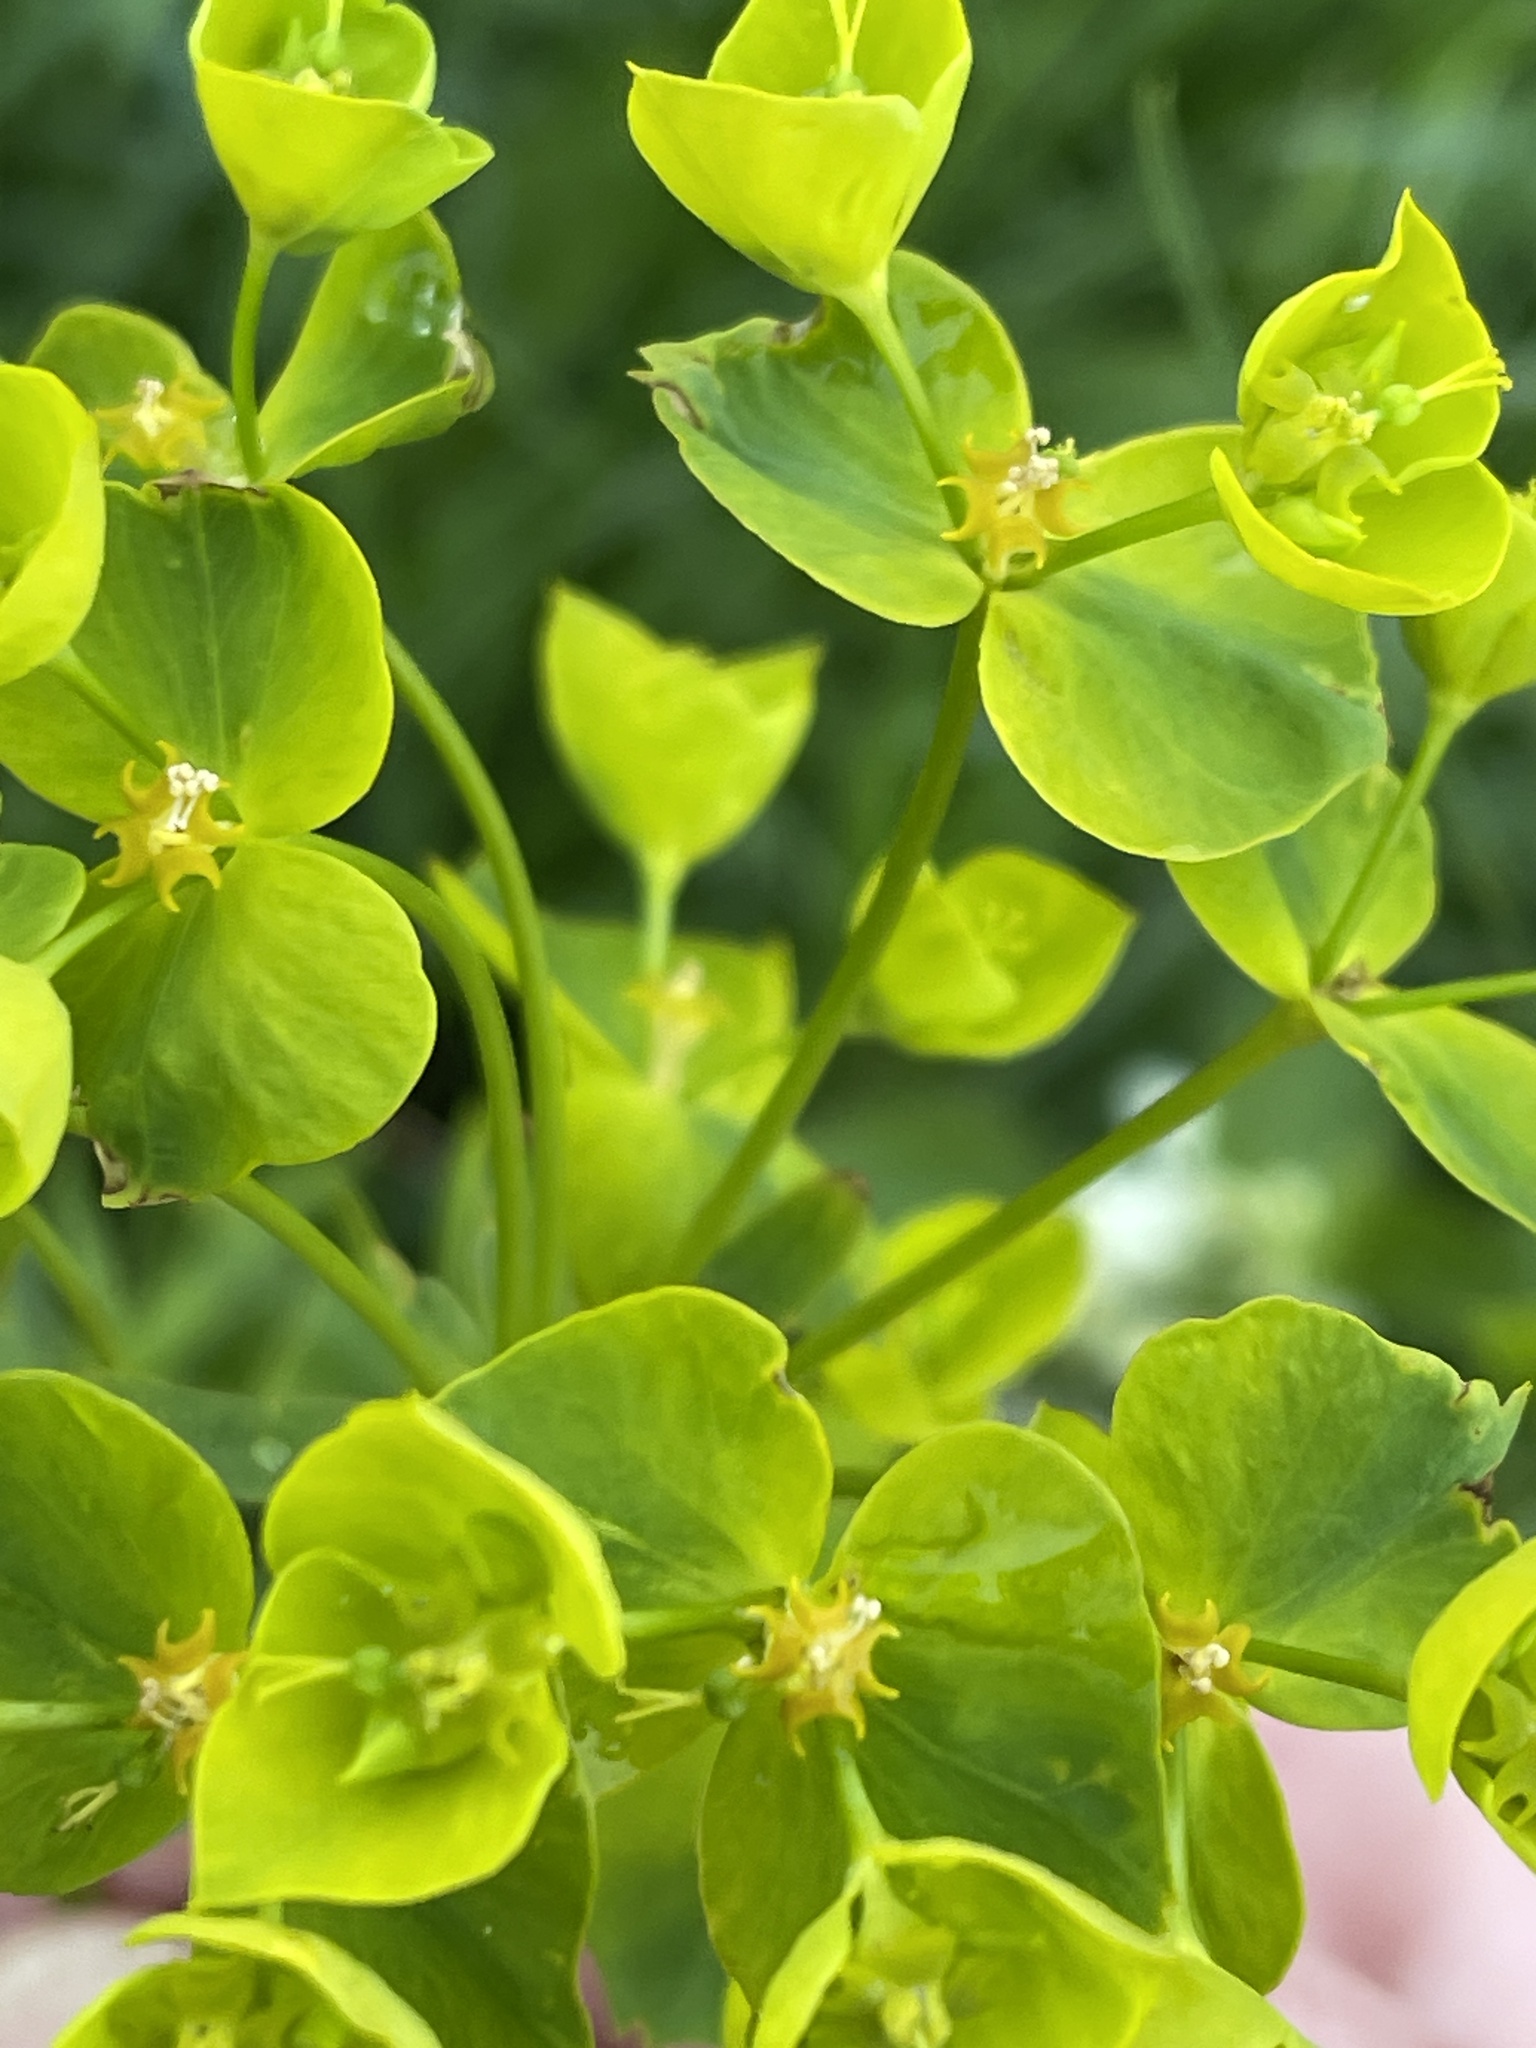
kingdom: Plantae
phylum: Tracheophyta
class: Magnoliopsida
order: Malpighiales
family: Euphorbiaceae
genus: Euphorbia
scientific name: Euphorbia virgata
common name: Leafy spurge
